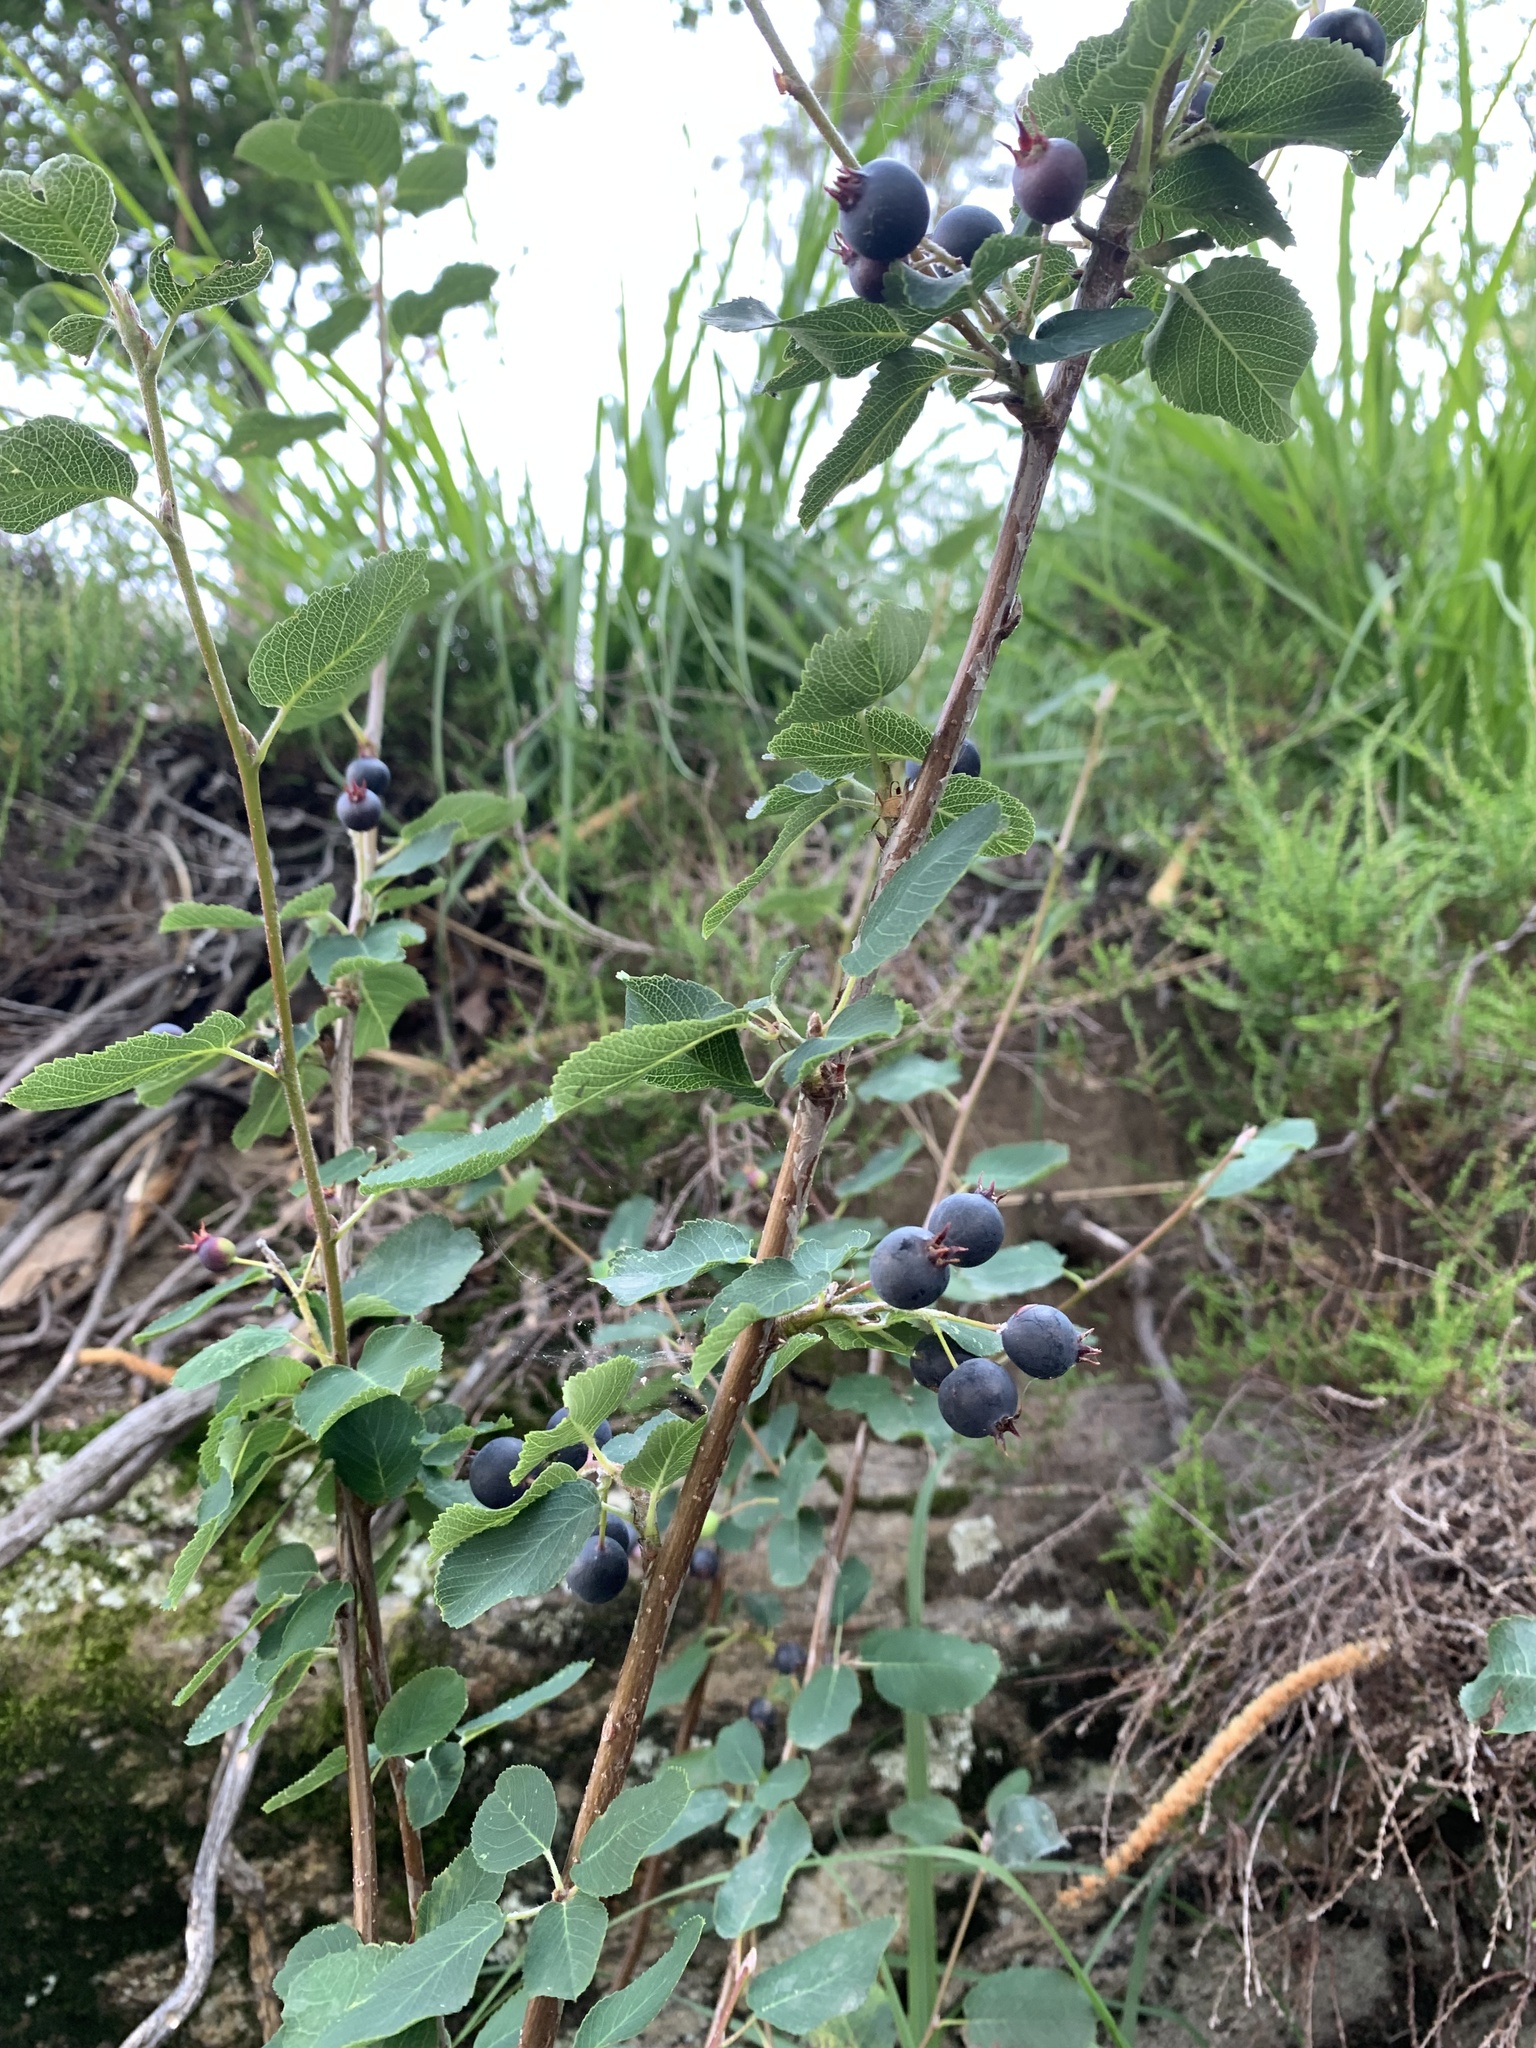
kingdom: Plantae
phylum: Tracheophyta
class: Magnoliopsida
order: Rosales
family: Rosaceae
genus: Amelanchier
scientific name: Amelanchier ovalis
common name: Serviceberry
